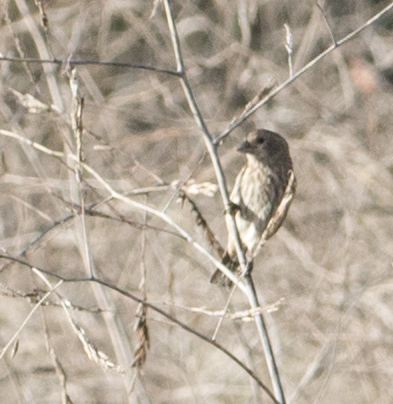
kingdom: Animalia
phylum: Chordata
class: Aves
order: Passeriformes
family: Fringillidae
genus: Haemorhous
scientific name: Haemorhous mexicanus
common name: House finch
